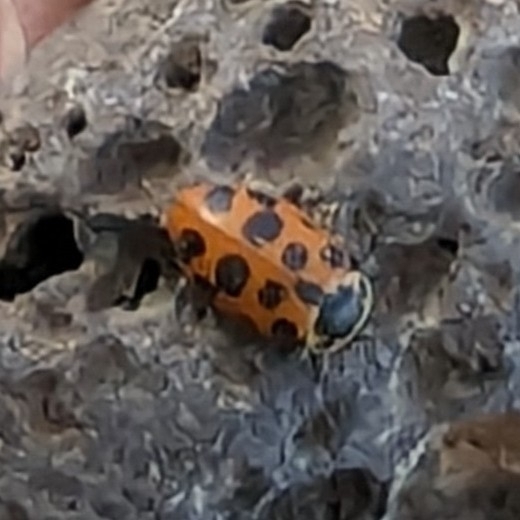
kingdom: Animalia
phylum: Arthropoda
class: Insecta
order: Coleoptera
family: Coccinellidae
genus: Hippodamia
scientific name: Hippodamia tredecimpunctata
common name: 13-spot ladybird
